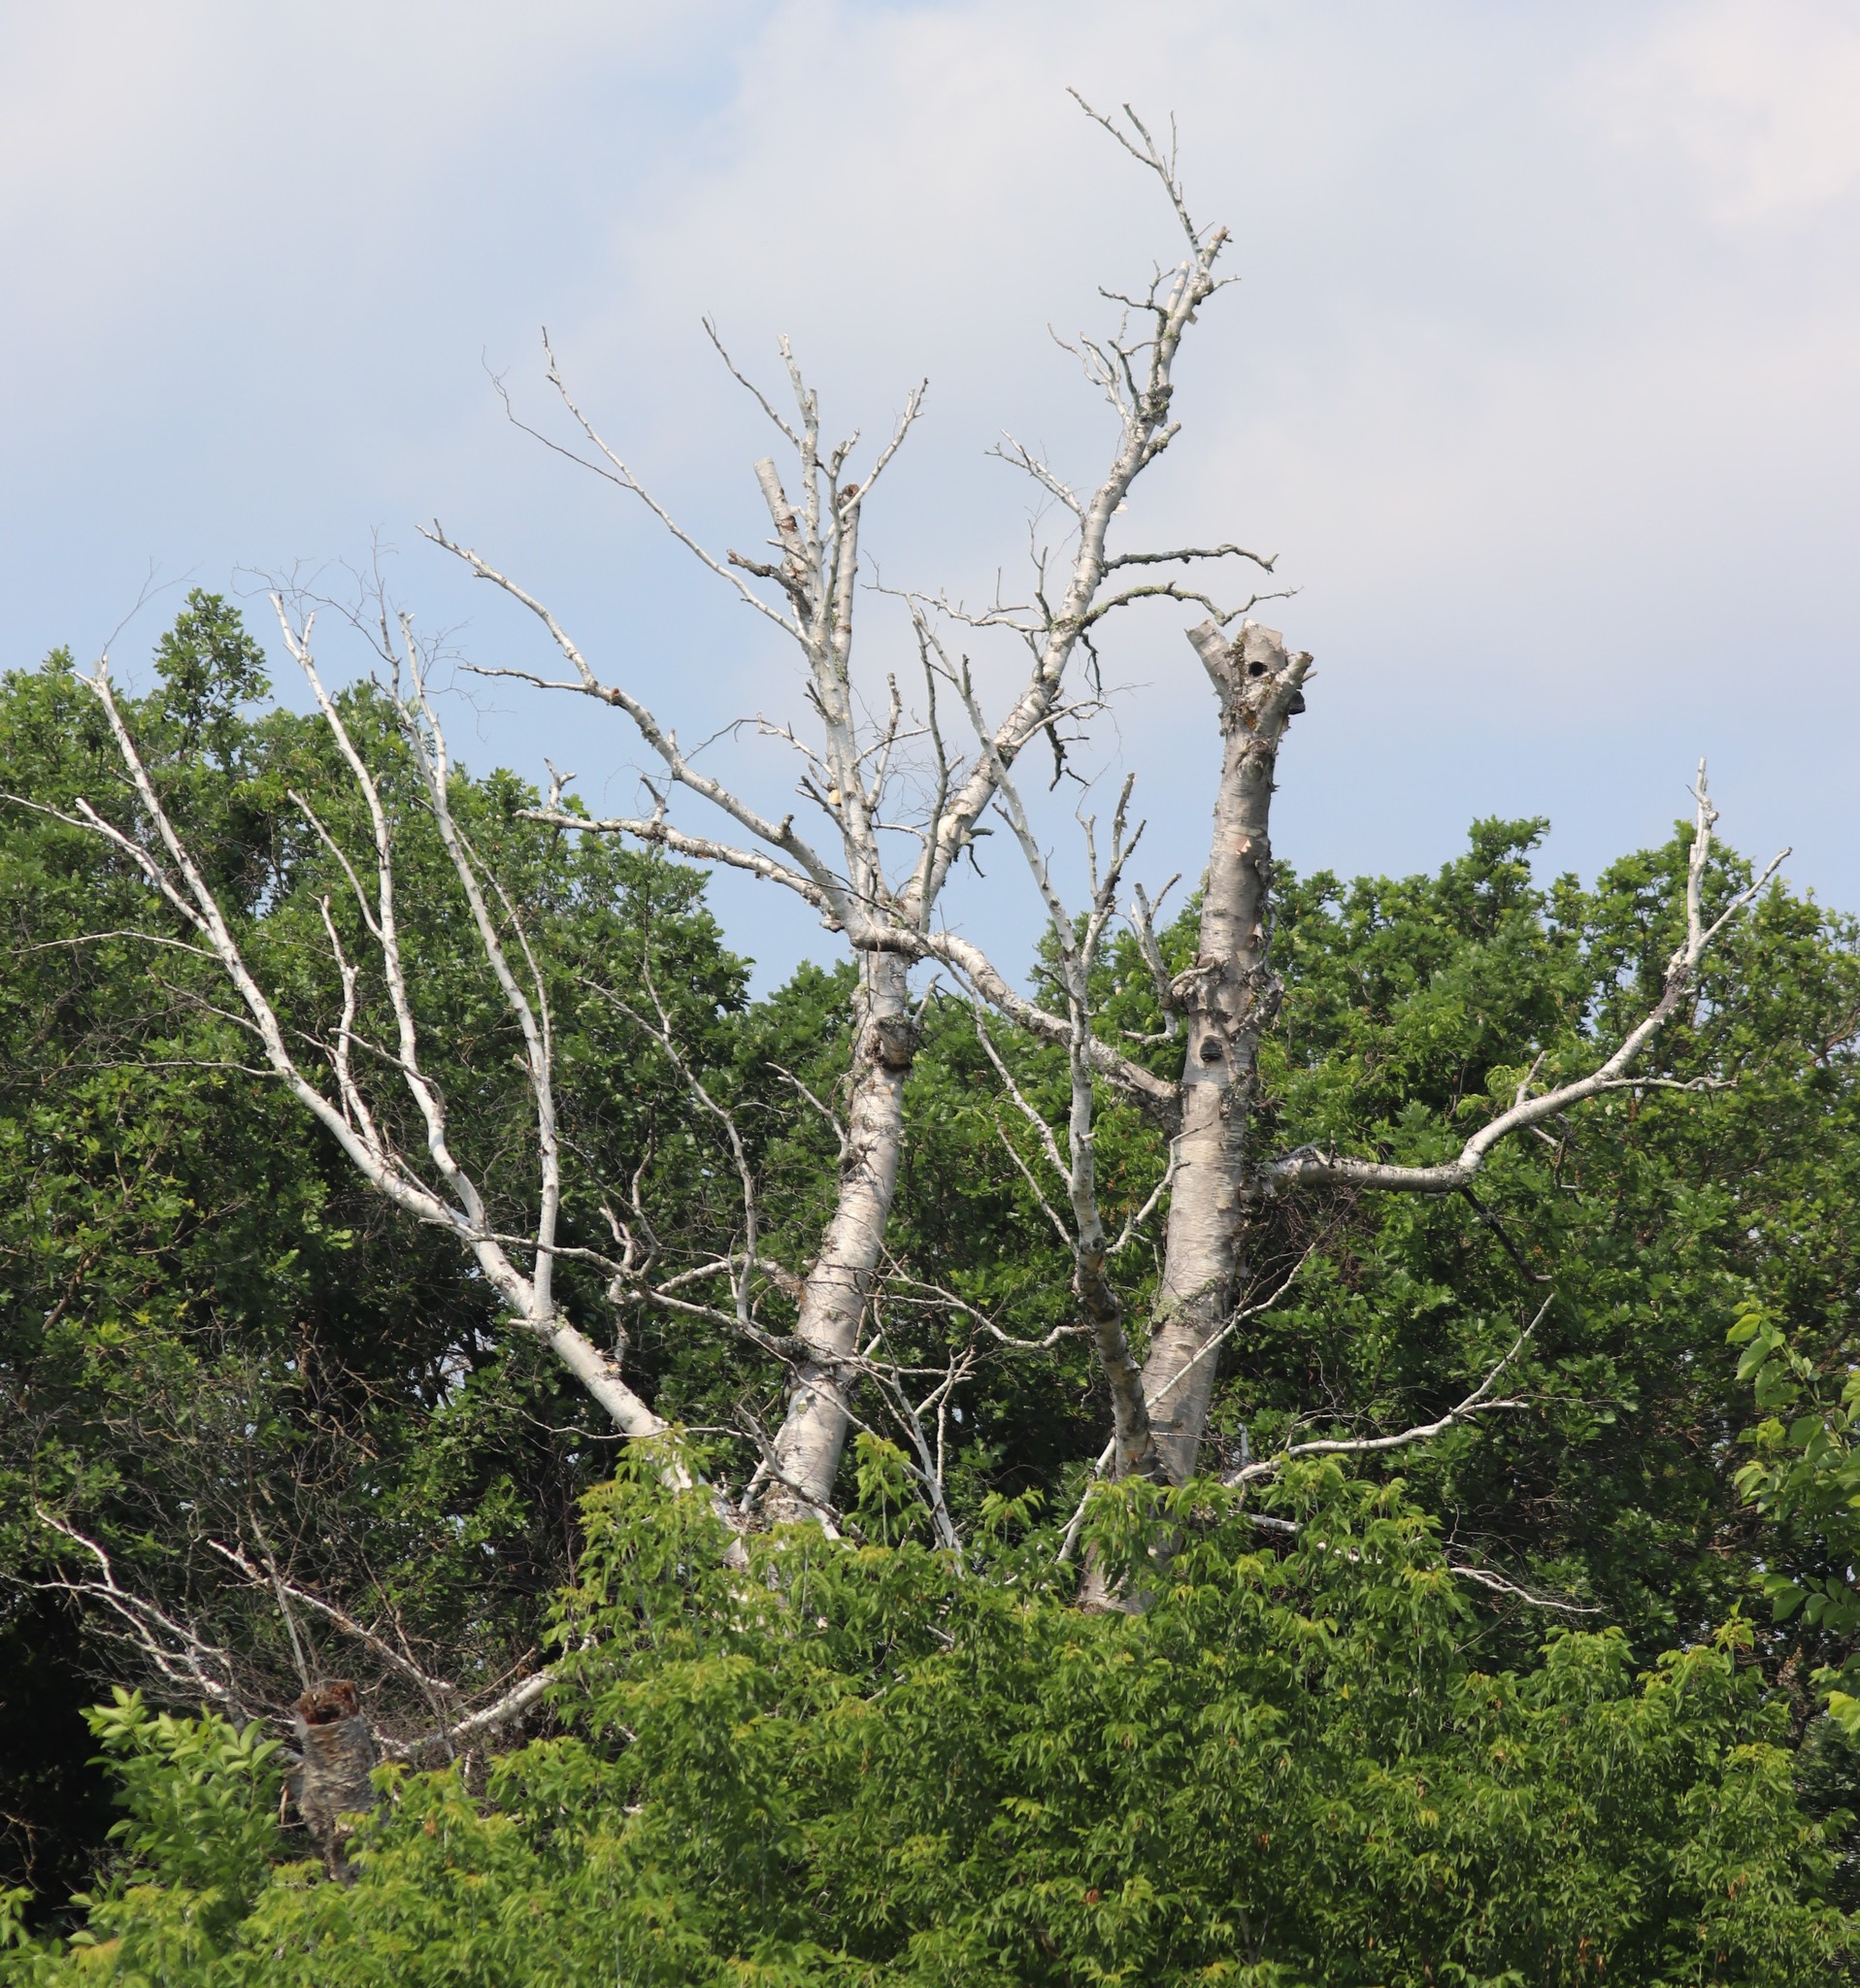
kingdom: Plantae
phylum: Tracheophyta
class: Magnoliopsida
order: Fagales
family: Betulaceae
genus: Betula
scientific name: Betula papyrifera
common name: Paper birch
